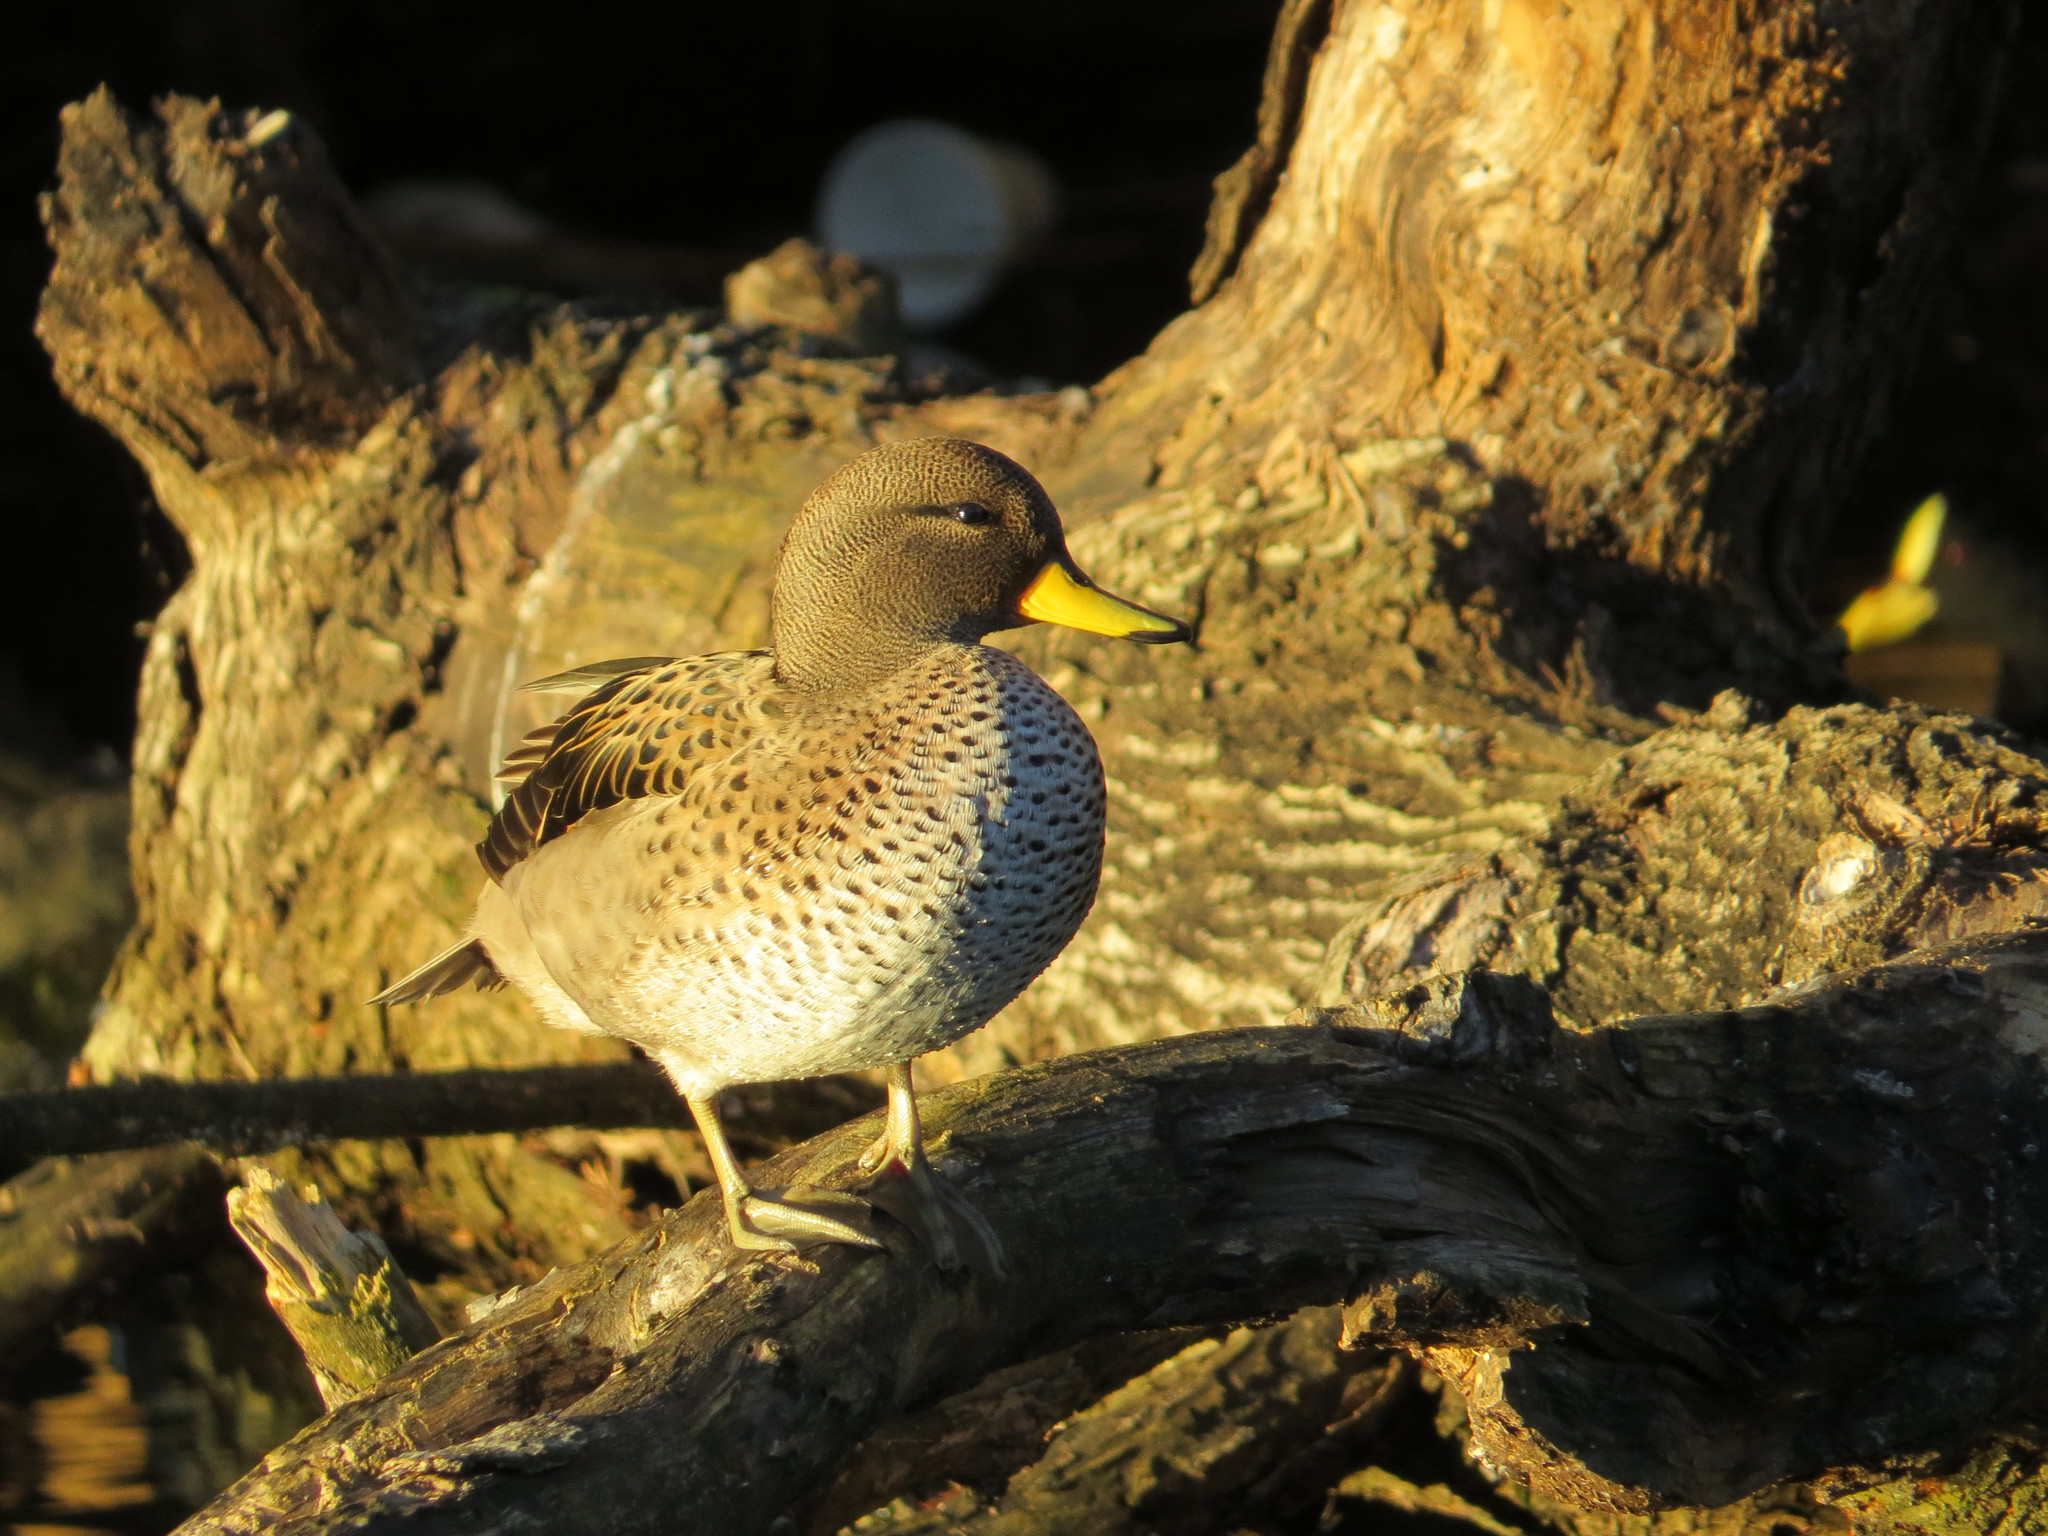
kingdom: Animalia
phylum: Chordata
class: Aves
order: Anseriformes
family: Anatidae
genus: Anas
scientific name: Anas flavirostris
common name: Yellow-billed teal
